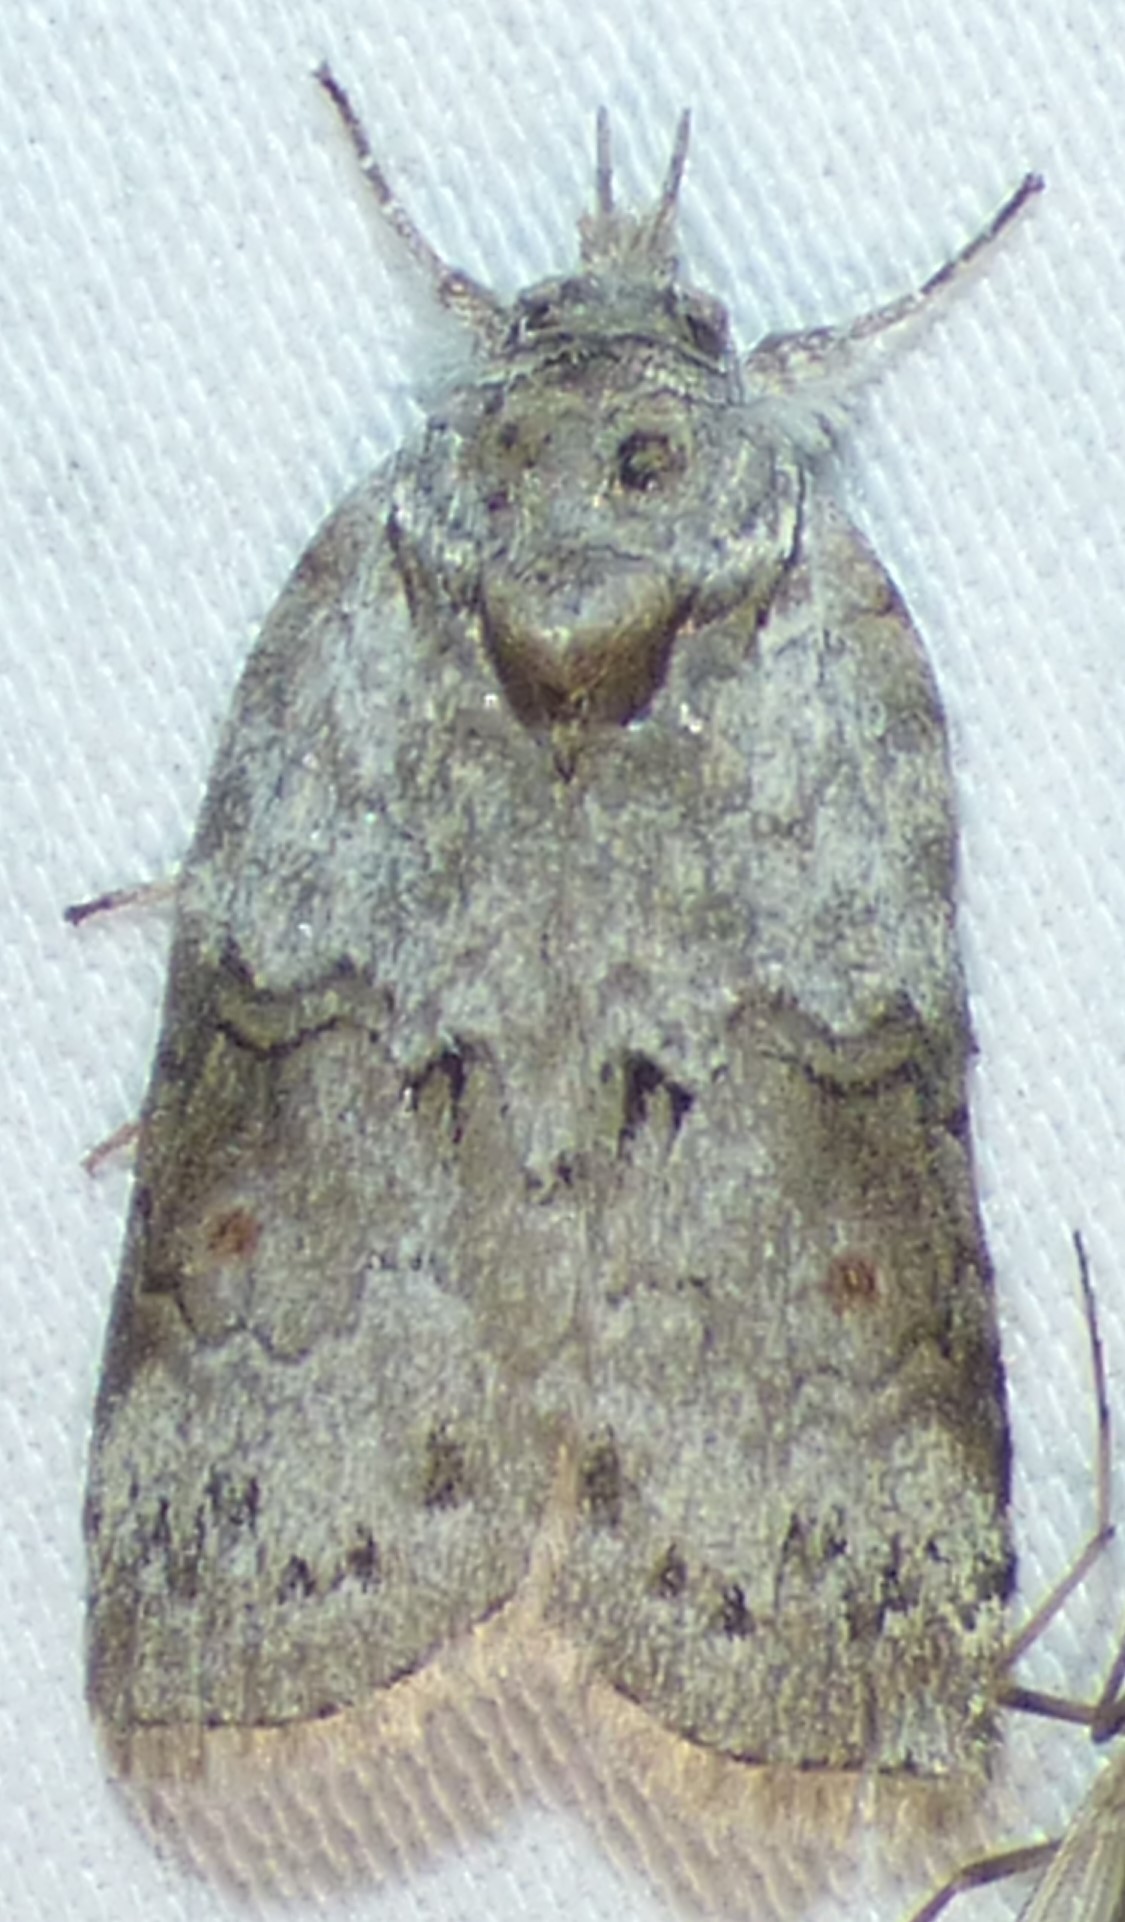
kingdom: Animalia
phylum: Arthropoda
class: Insecta
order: Lepidoptera
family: Nolidae
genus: Nycteola
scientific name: Nycteola metaspilella
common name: Forgotten frigid owlet
